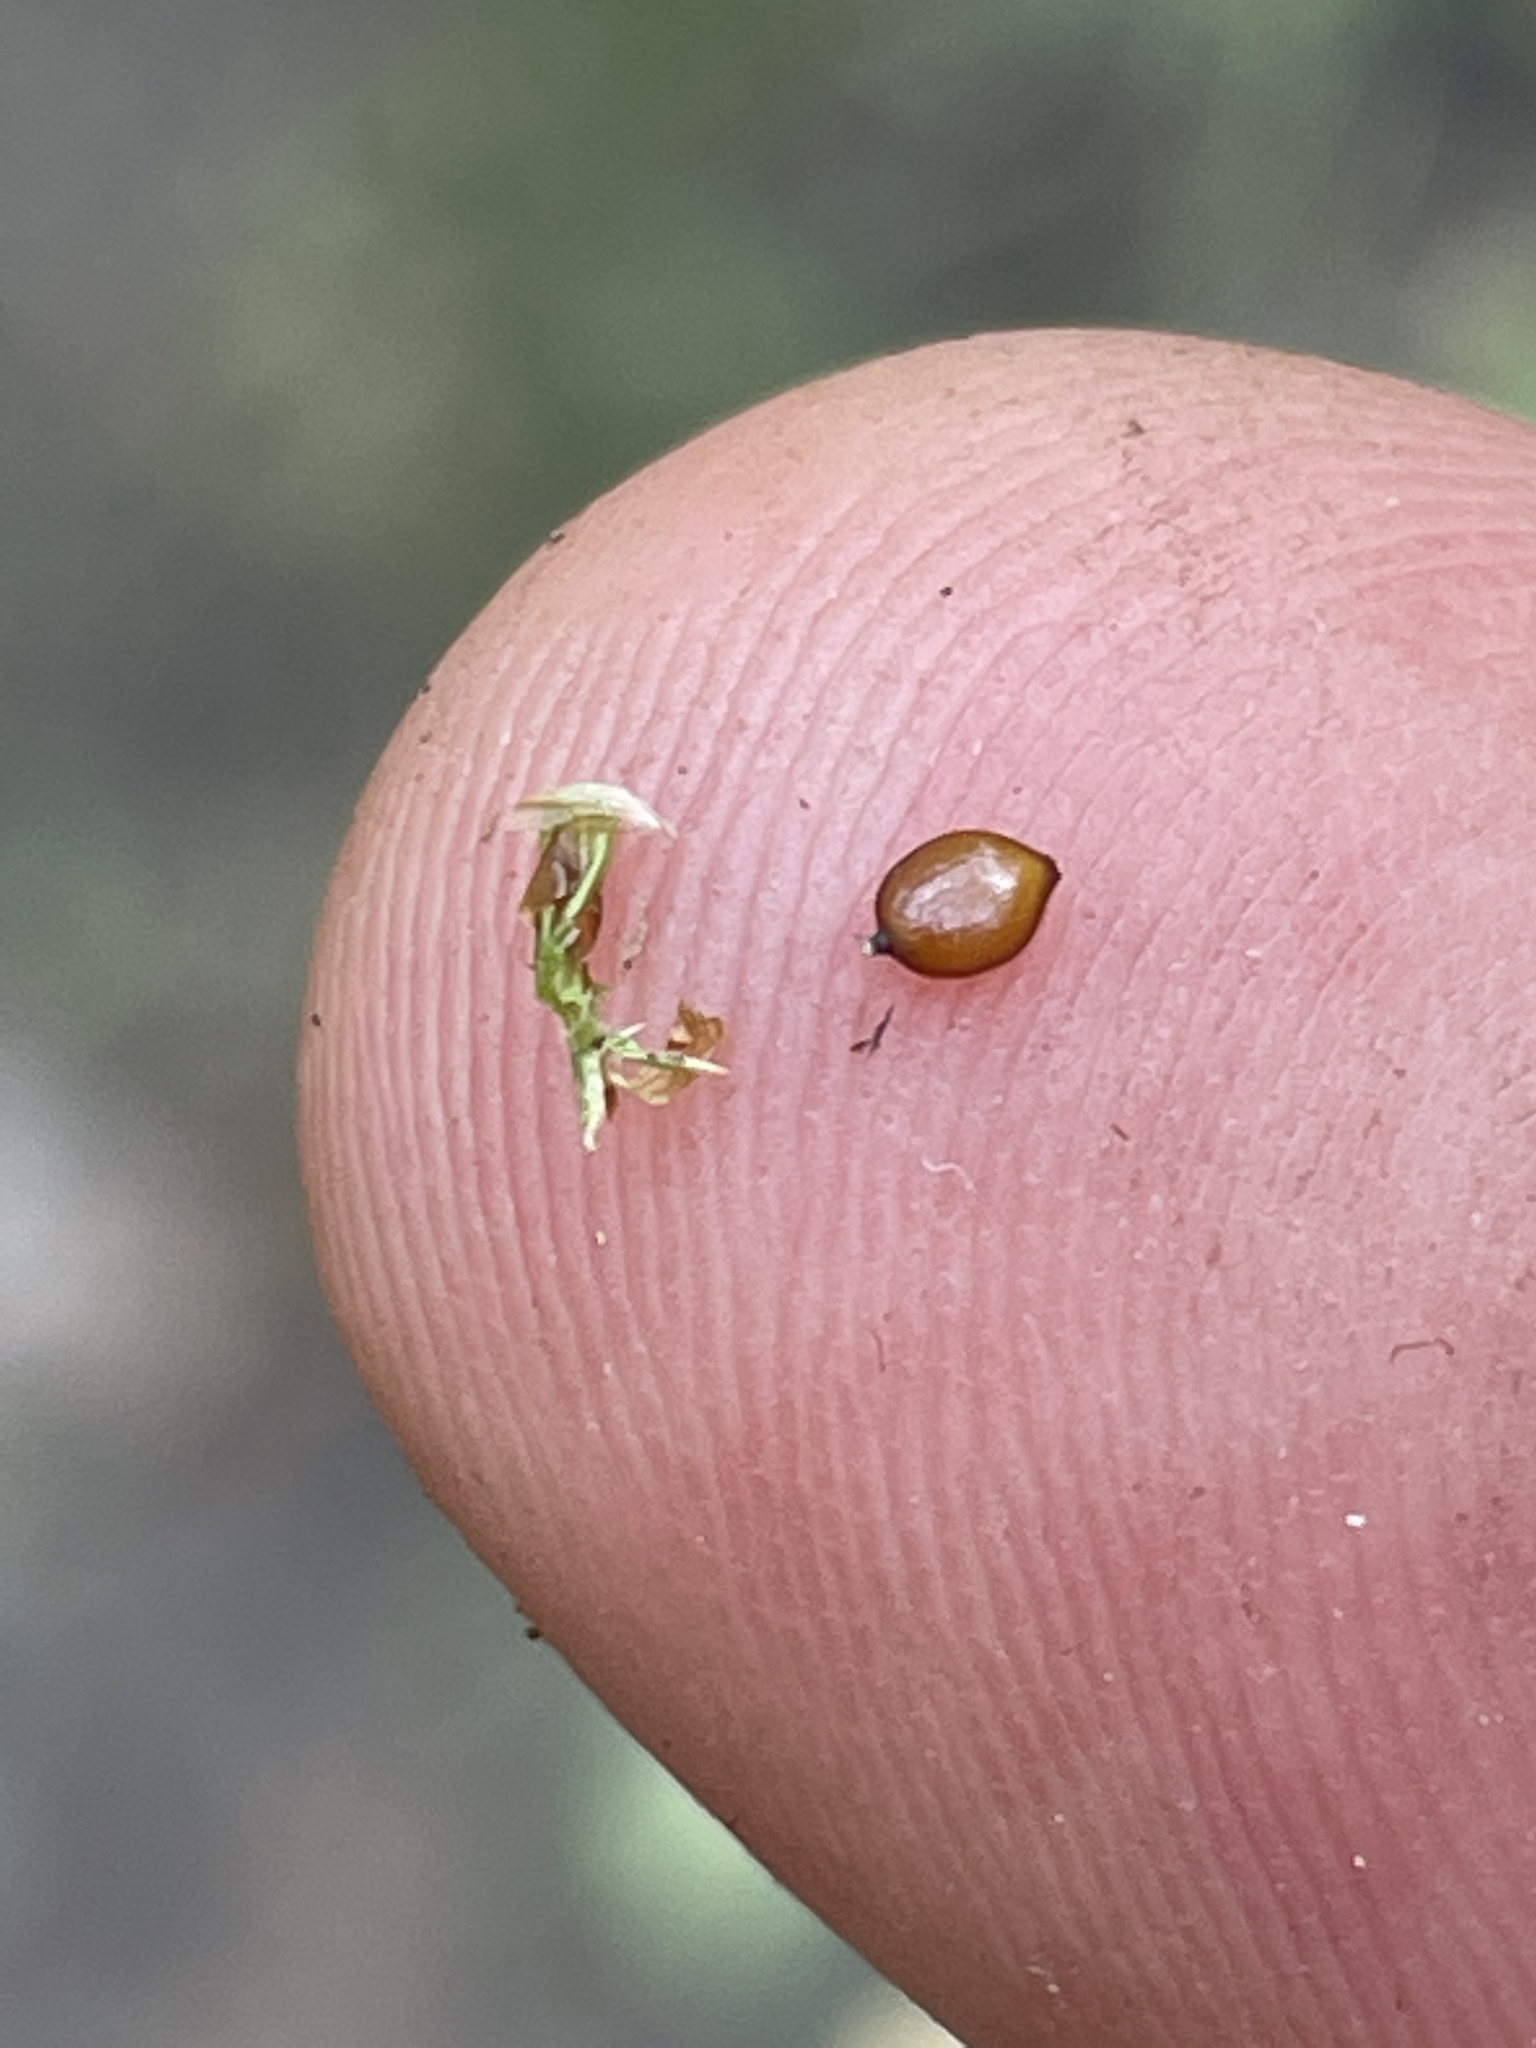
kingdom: Plantae
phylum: Tracheophyta
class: Liliopsida
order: Poales
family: Cyperaceae
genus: Carex
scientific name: Carex hoodii
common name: Hood's sedge
